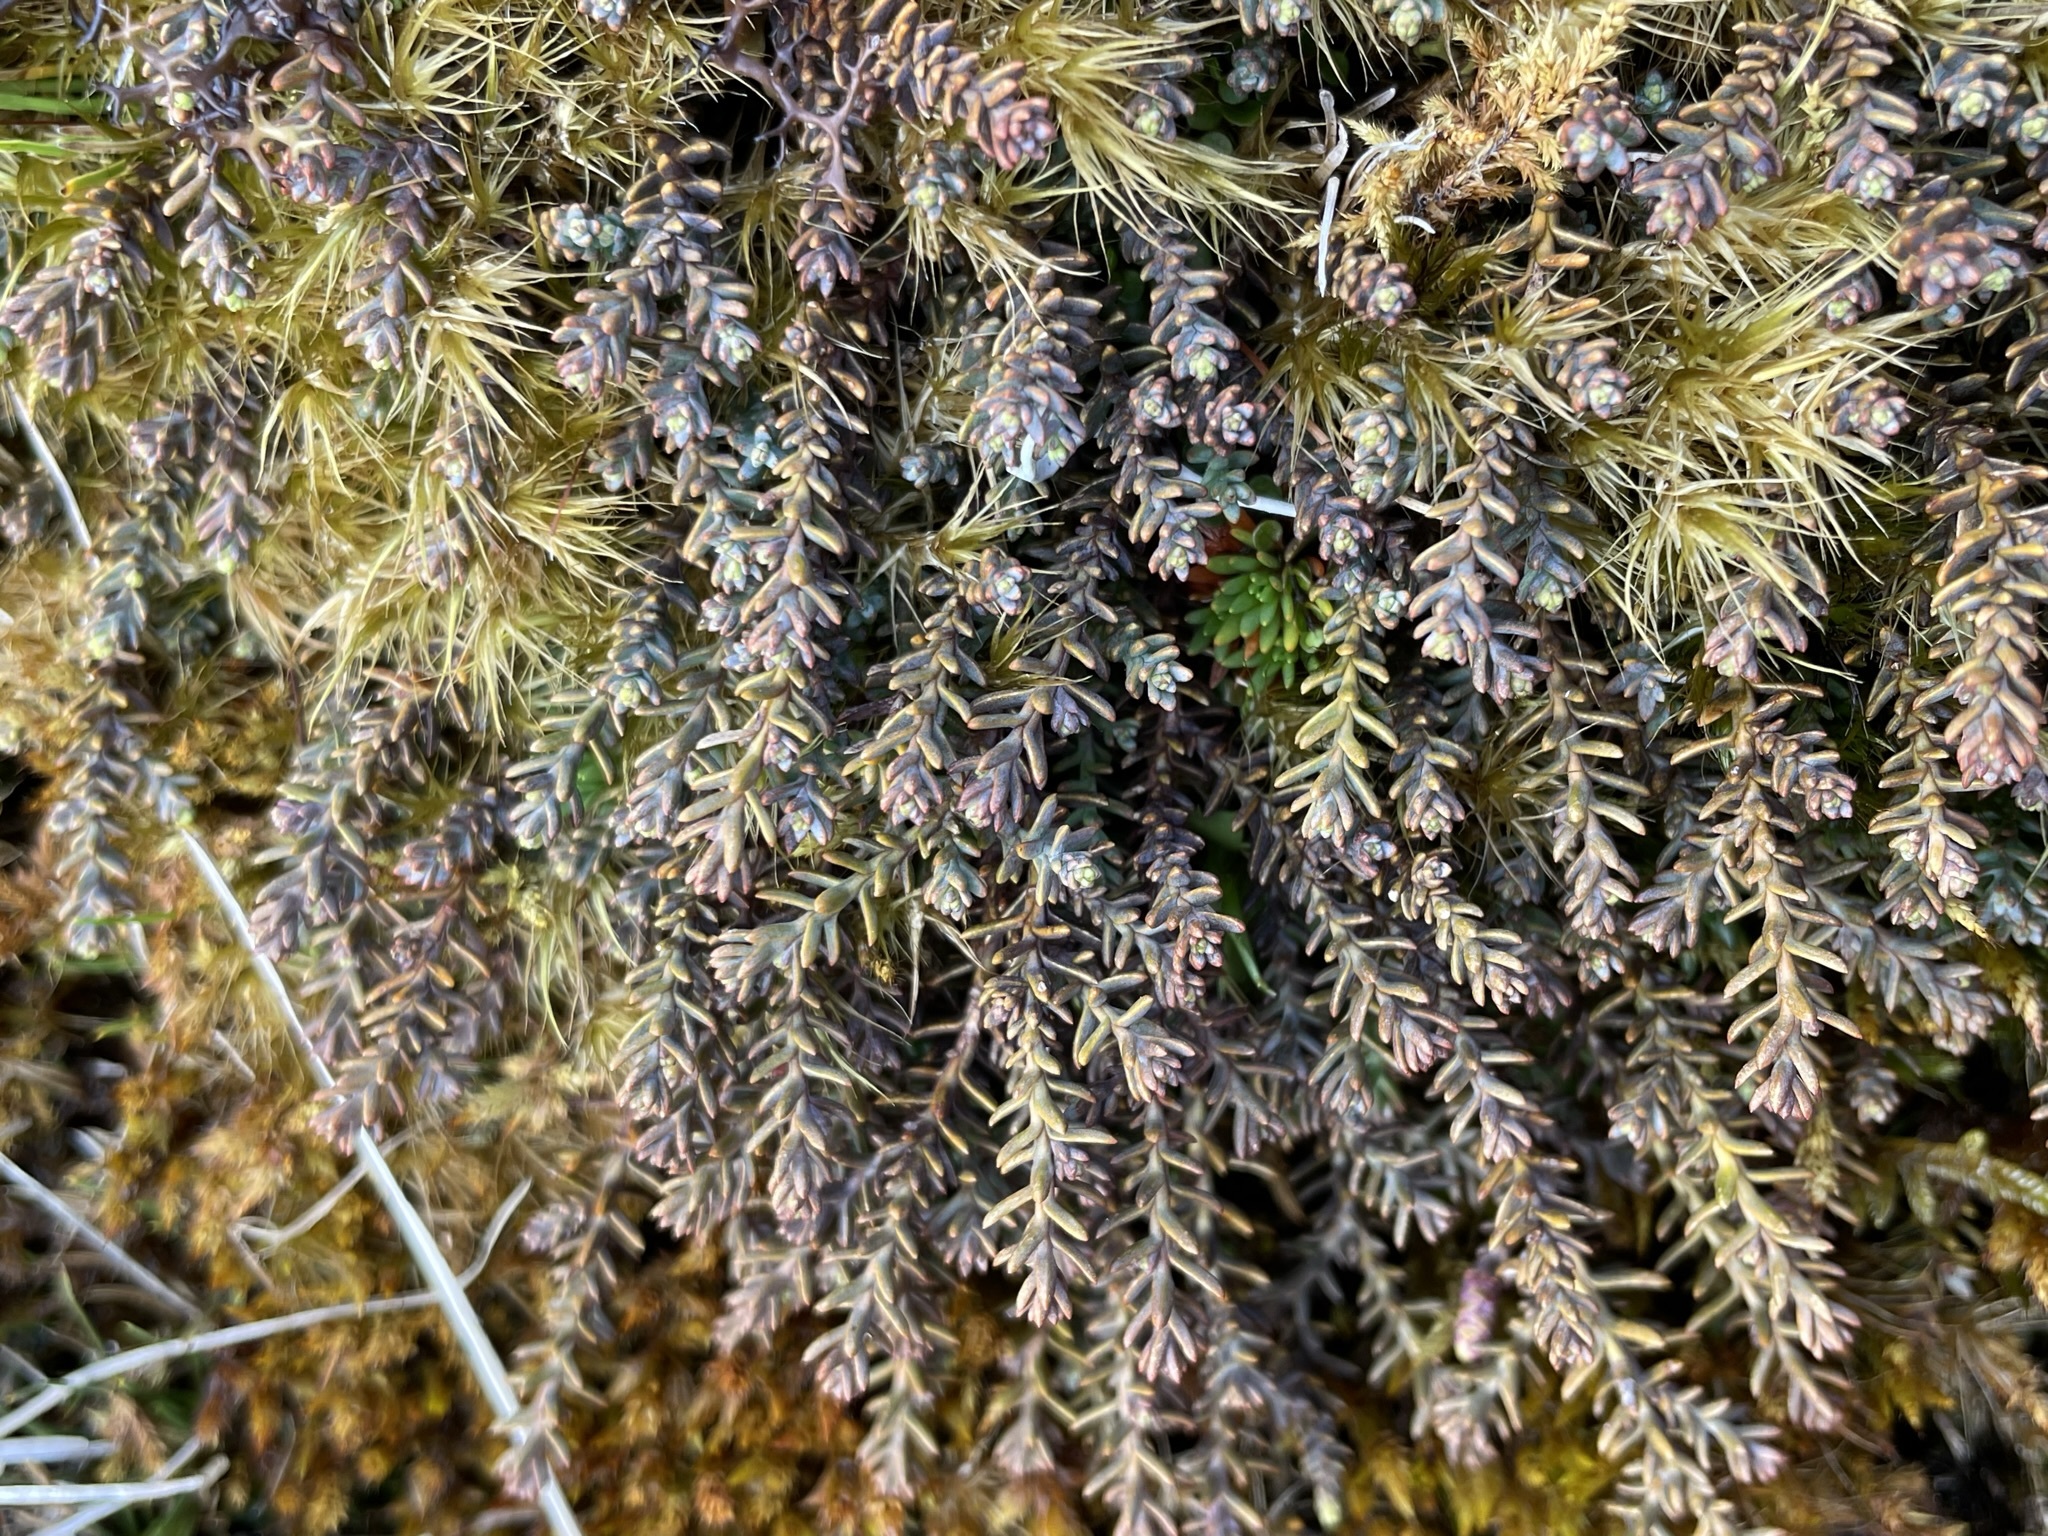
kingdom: Plantae
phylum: Tracheophyta
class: Pinopsida
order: Pinales
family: Podocarpaceae
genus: Lepidothamnus
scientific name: Lepidothamnus laxifolius
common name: Pygmy pine
